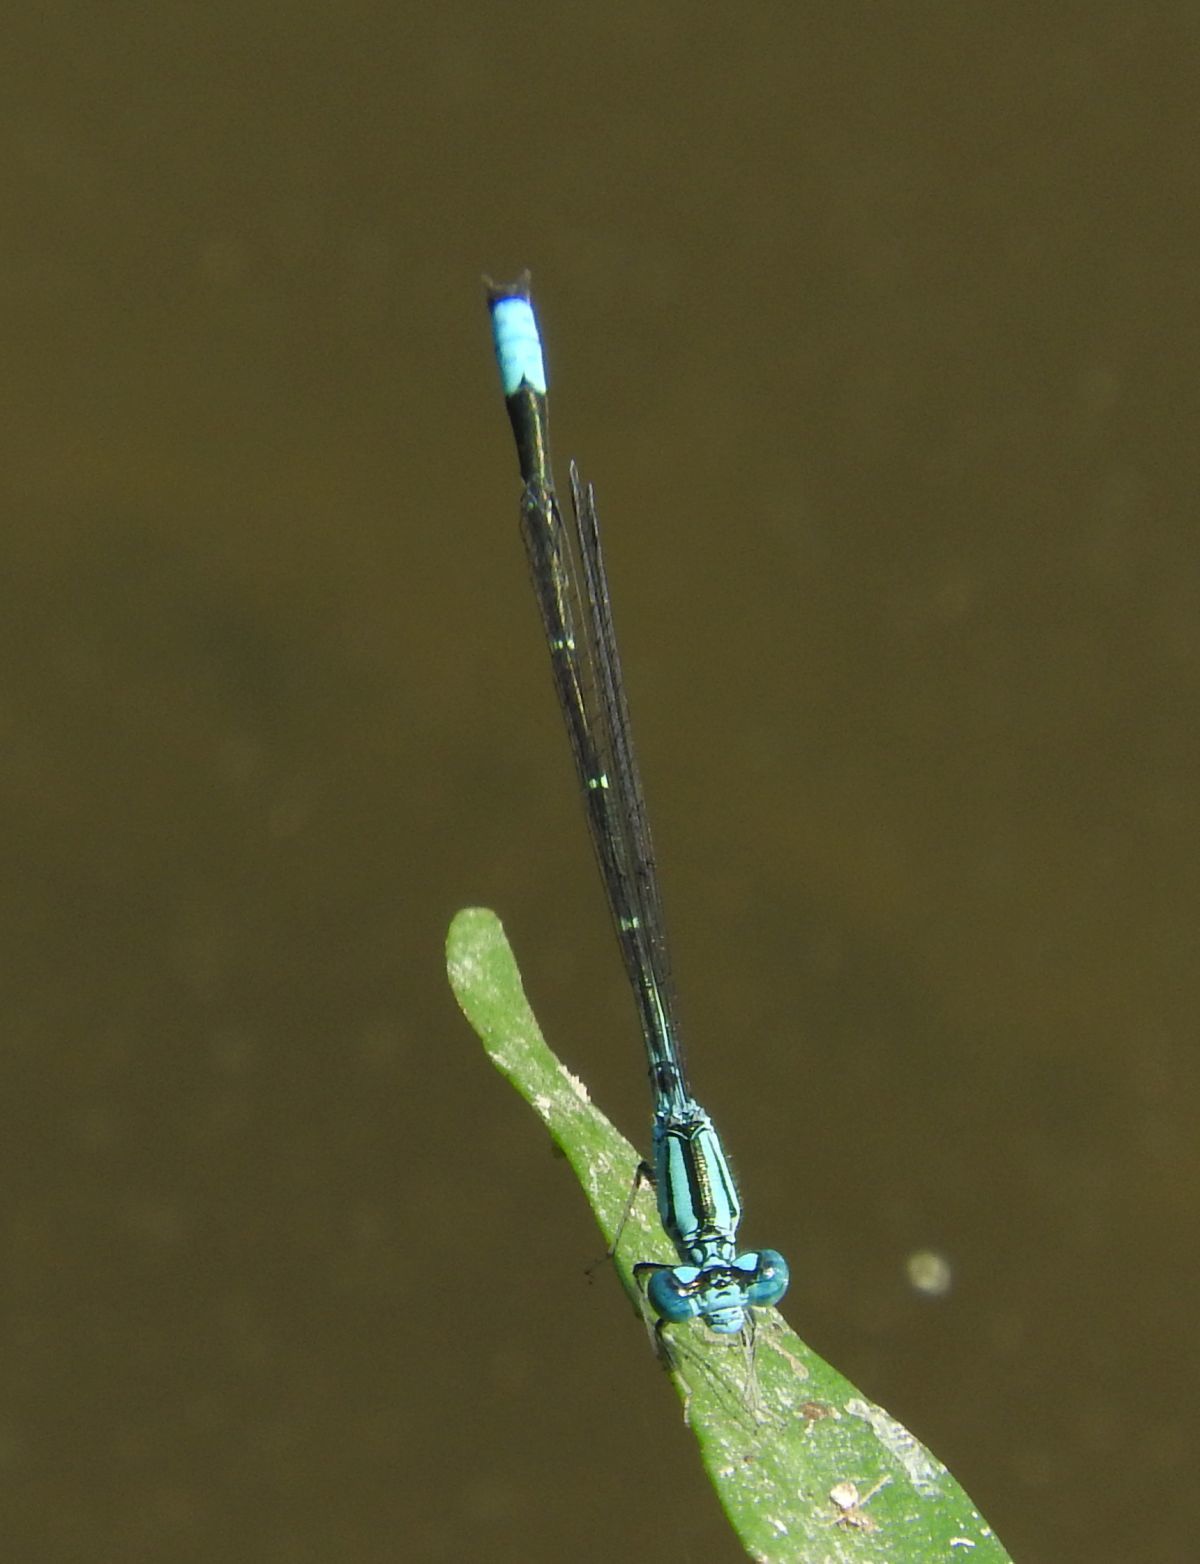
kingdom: Animalia
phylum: Arthropoda
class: Insecta
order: Odonata
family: Coenagrionidae
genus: Enallagma
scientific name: Enallagma traviatum
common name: Slender bluet
